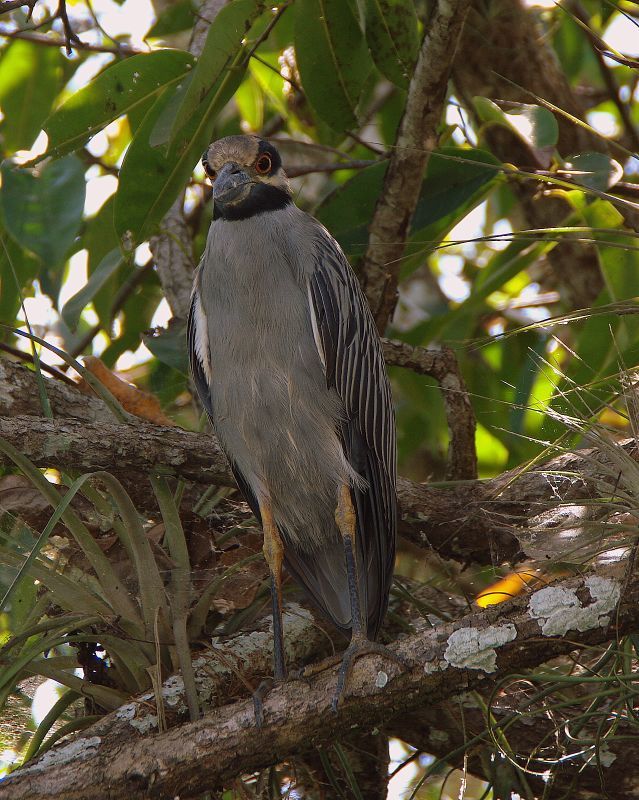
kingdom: Animalia
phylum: Chordata
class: Aves
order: Pelecaniformes
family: Ardeidae
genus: Nyctanassa
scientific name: Nyctanassa violacea
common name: Yellow-crowned night heron
